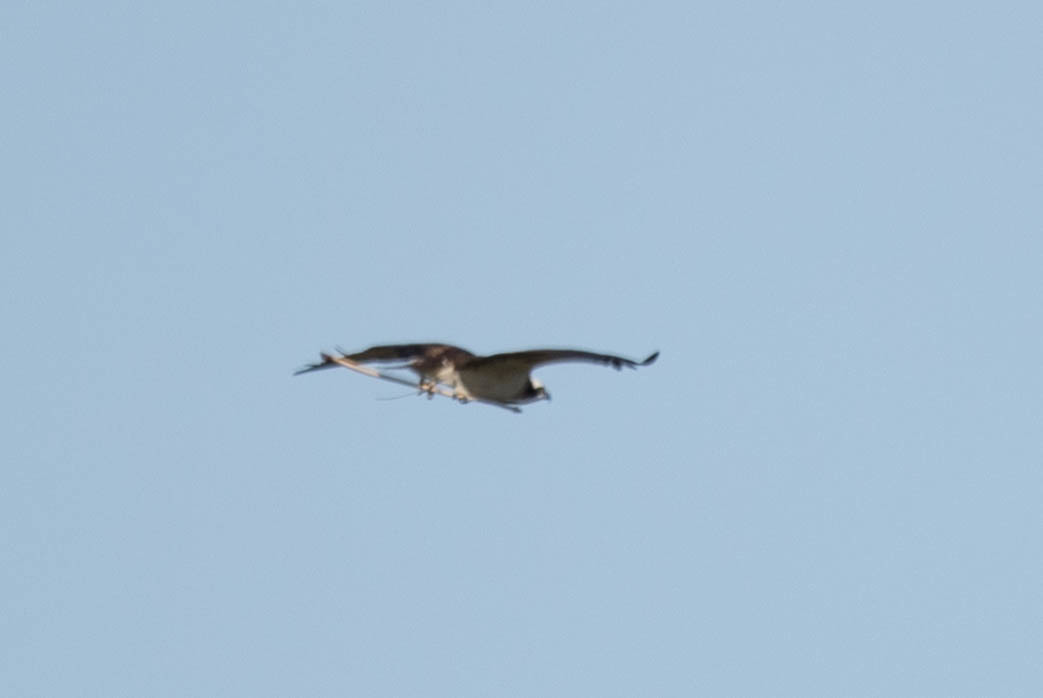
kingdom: Animalia
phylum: Chordata
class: Aves
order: Accipitriformes
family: Pandionidae
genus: Pandion
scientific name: Pandion haliaetus
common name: Osprey
